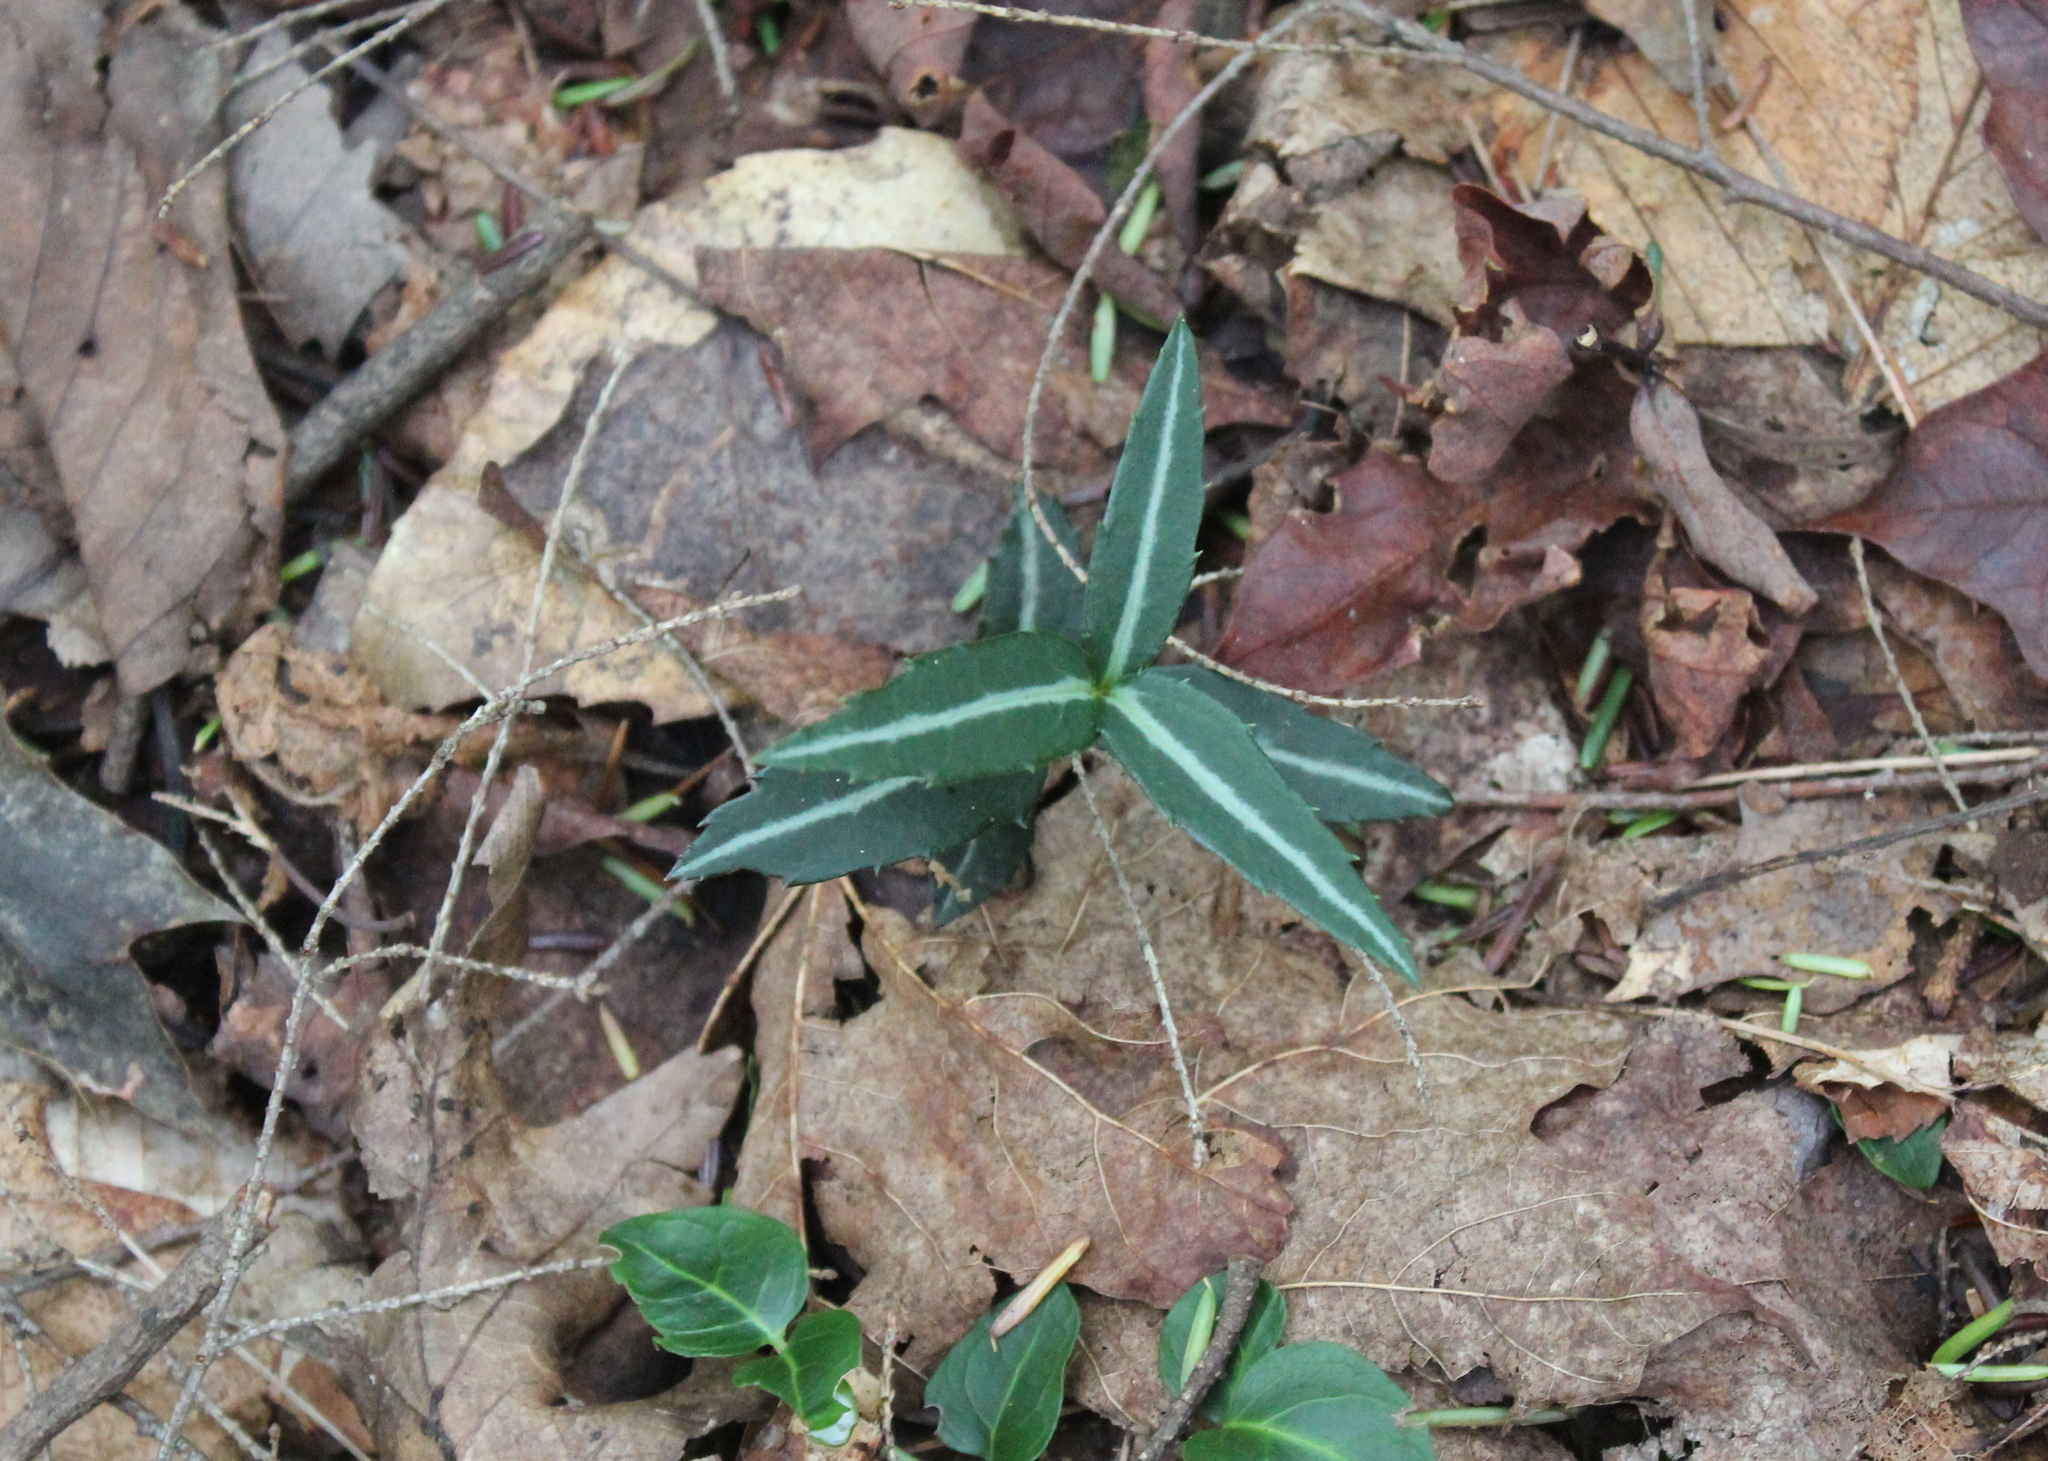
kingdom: Plantae
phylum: Tracheophyta
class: Magnoliopsida
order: Ericales
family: Ericaceae
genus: Chimaphila
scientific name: Chimaphila maculata
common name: Spotted pipsissewa
